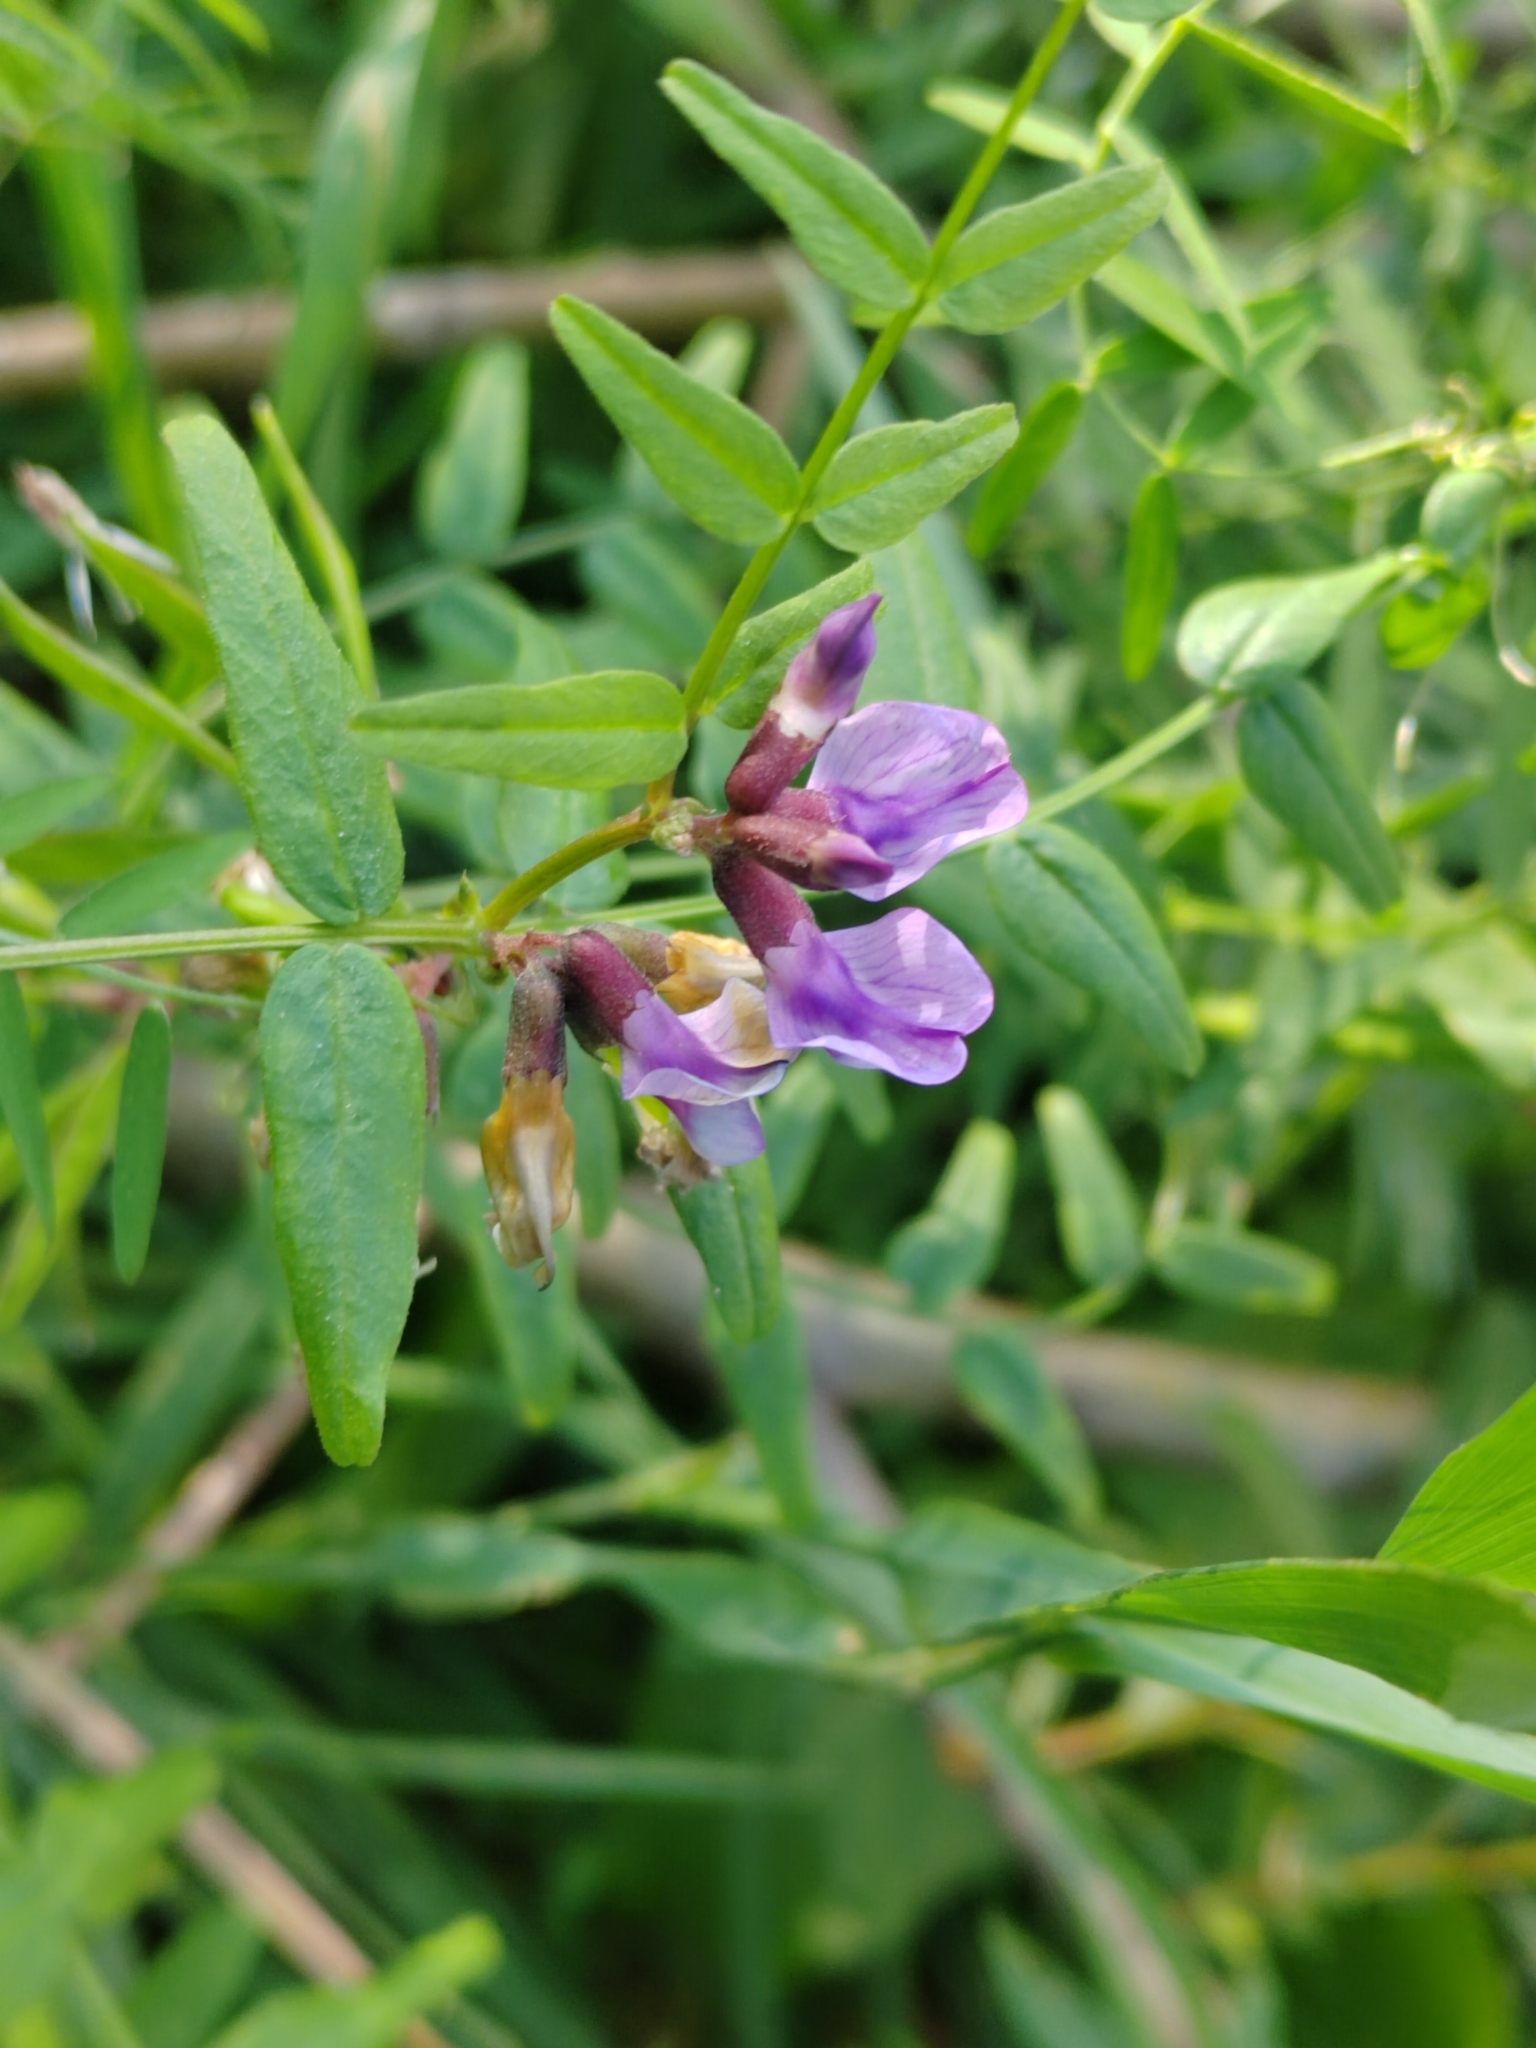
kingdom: Plantae
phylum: Tracheophyta
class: Magnoliopsida
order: Fabales
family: Fabaceae
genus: Vicia
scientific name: Vicia sepium
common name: Bush vetch
